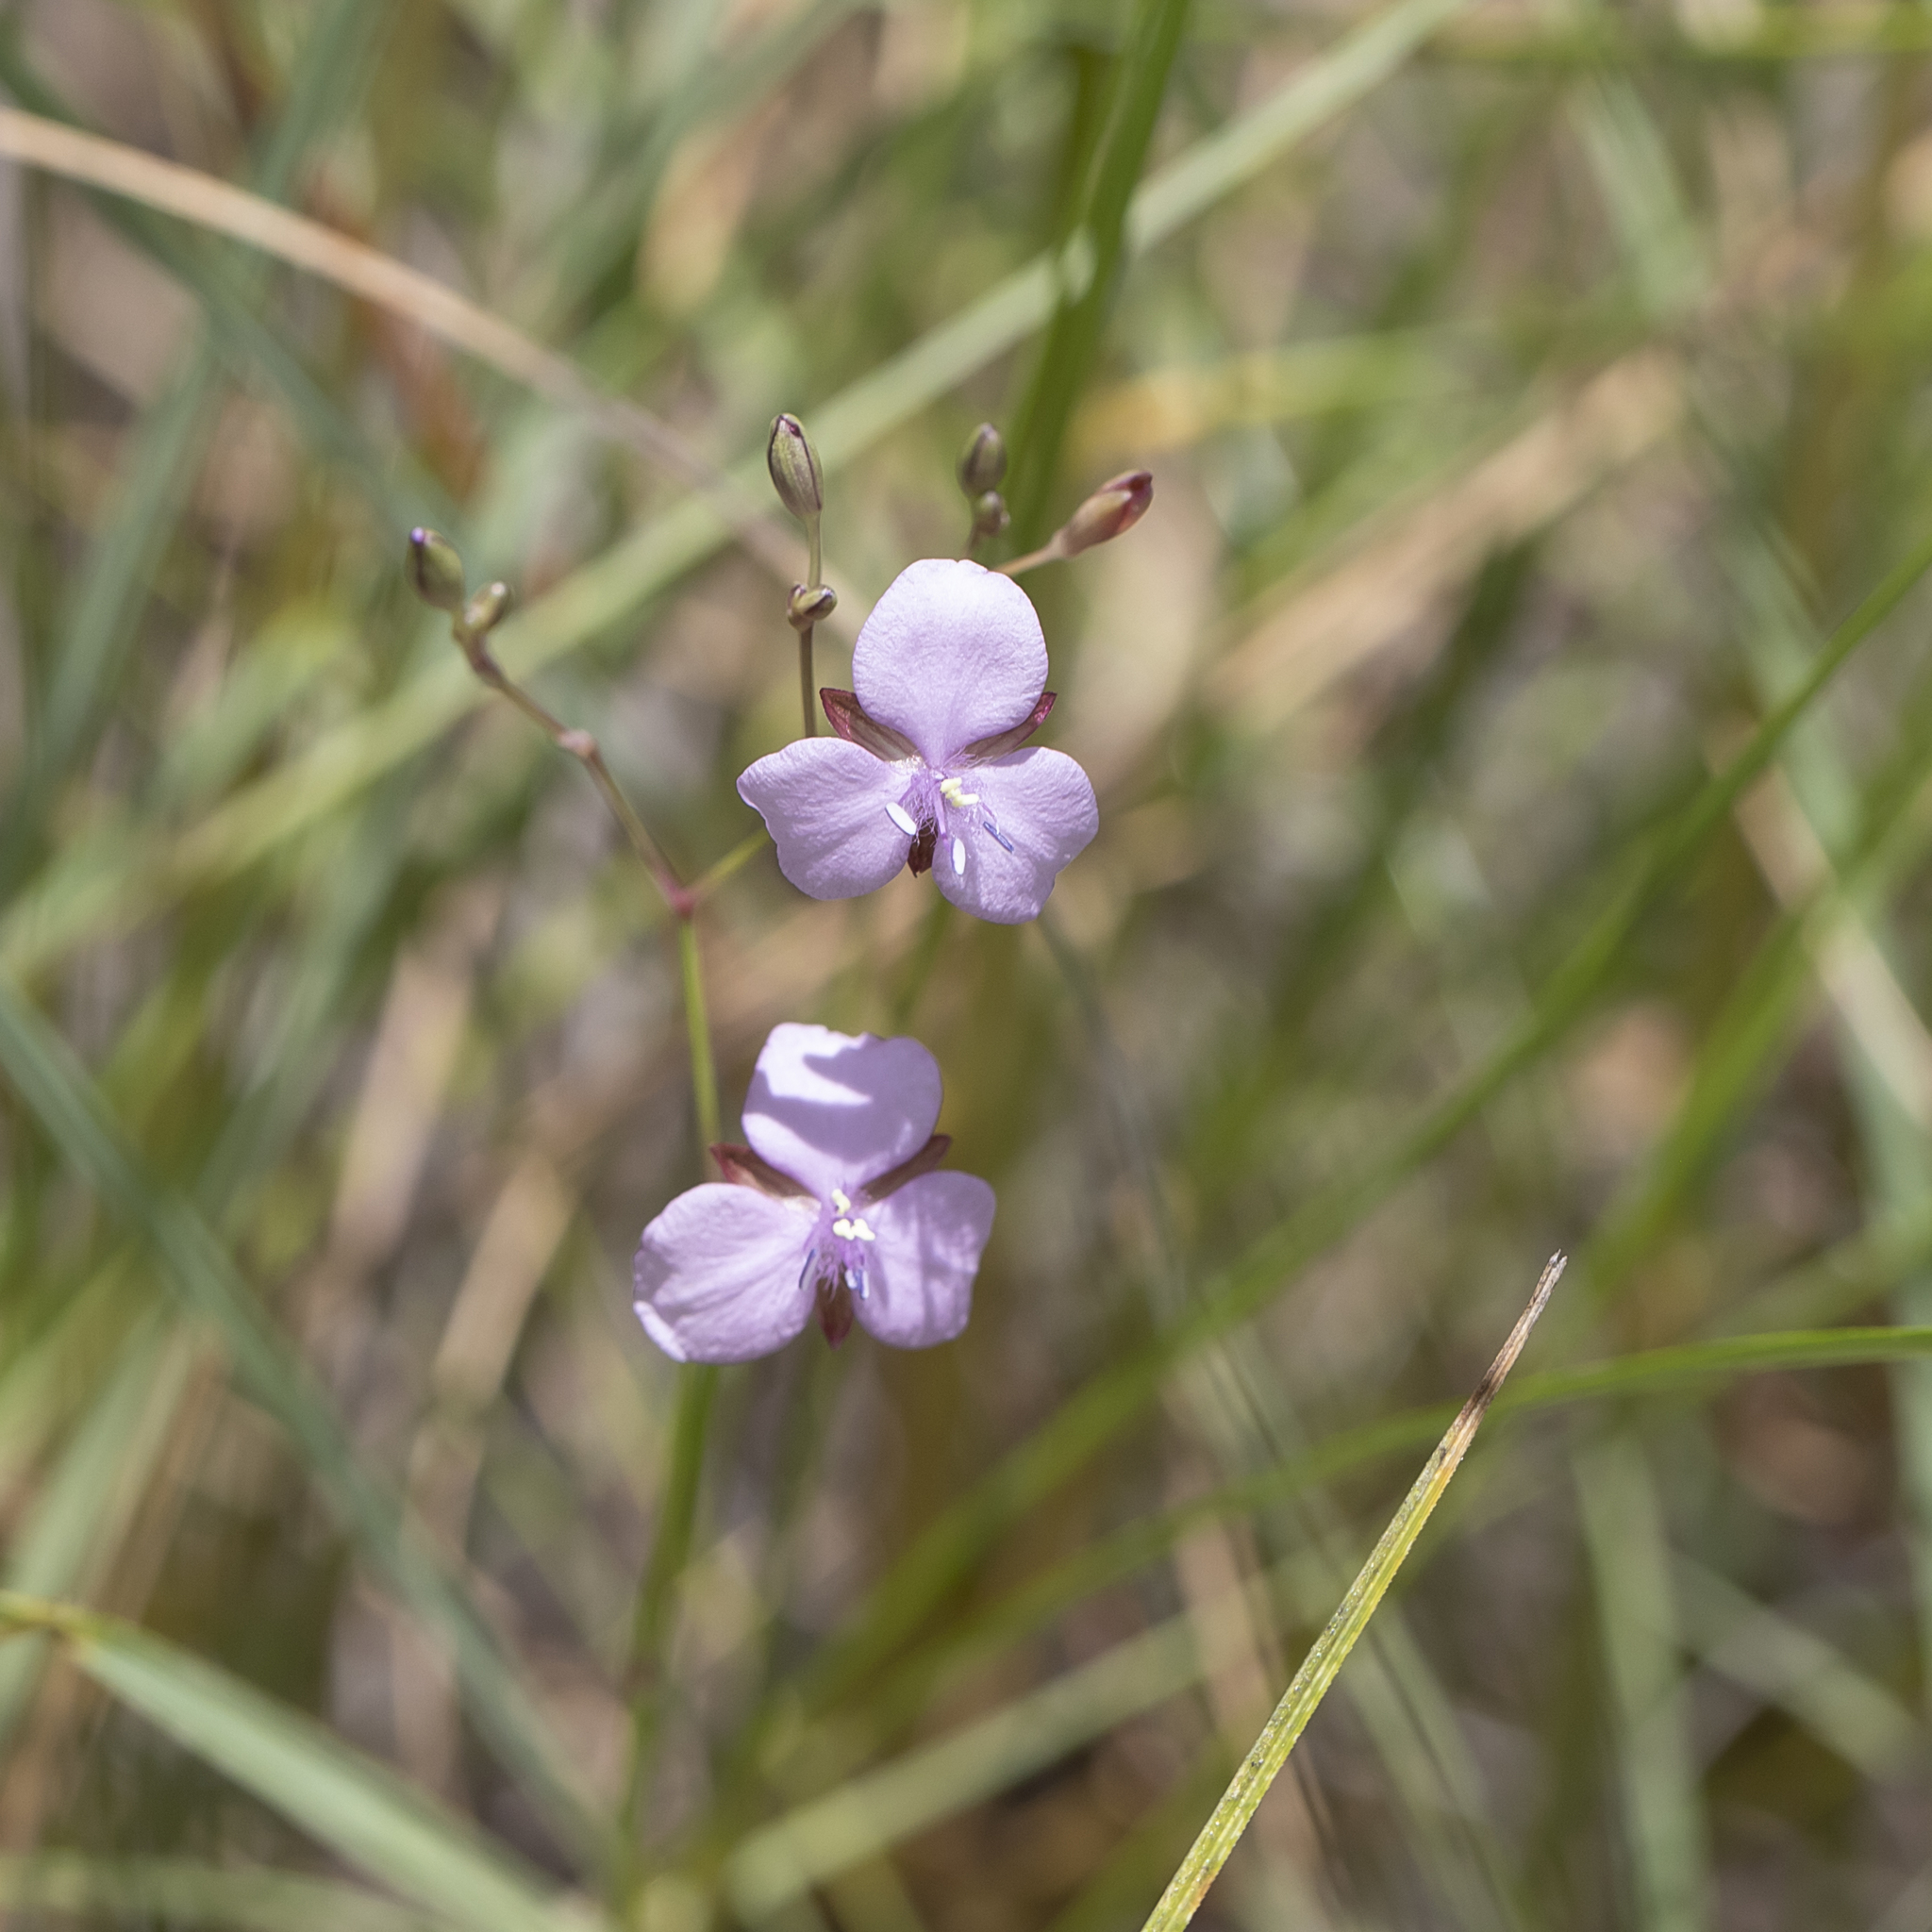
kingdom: Plantae
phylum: Tracheophyta
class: Liliopsida
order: Commelinales
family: Commelinaceae
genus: Murdannia
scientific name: Murdannia graminea
